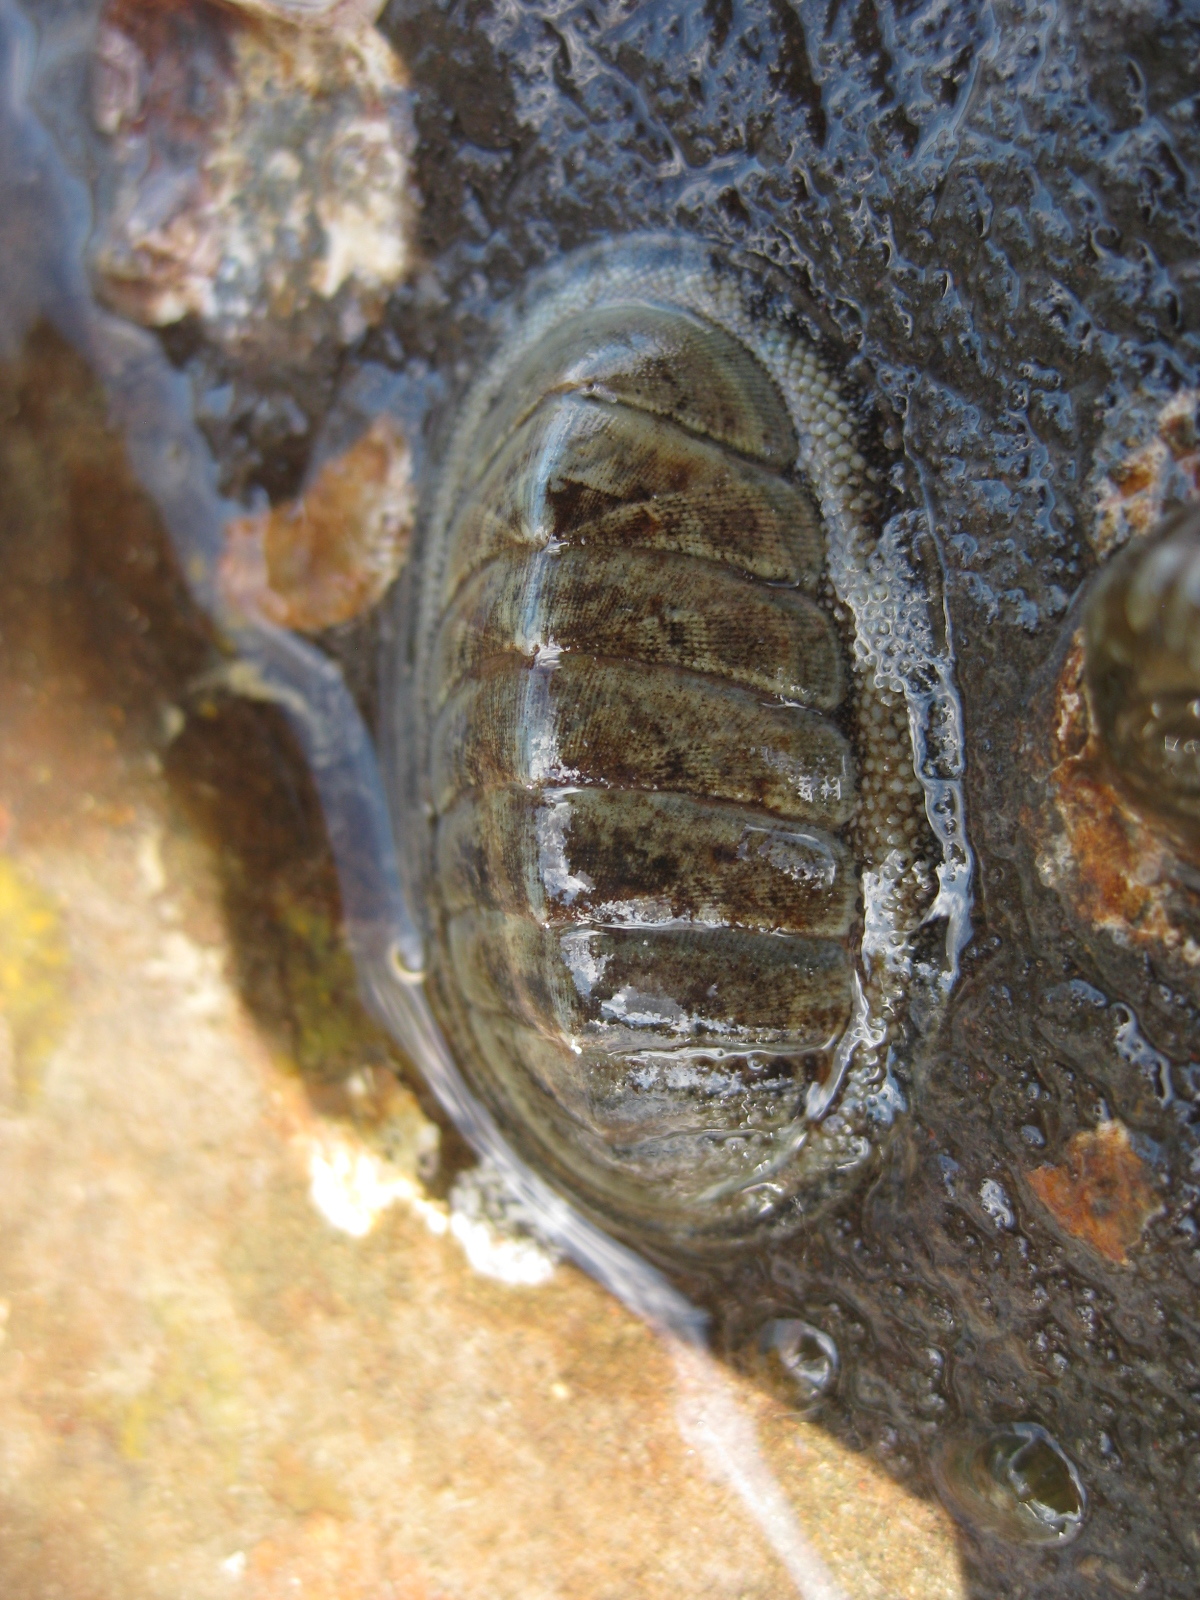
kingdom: Animalia
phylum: Mollusca
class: Polyplacophora
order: Chitonida
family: Chitonidae
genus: Chiton
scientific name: Chiton glaucus
